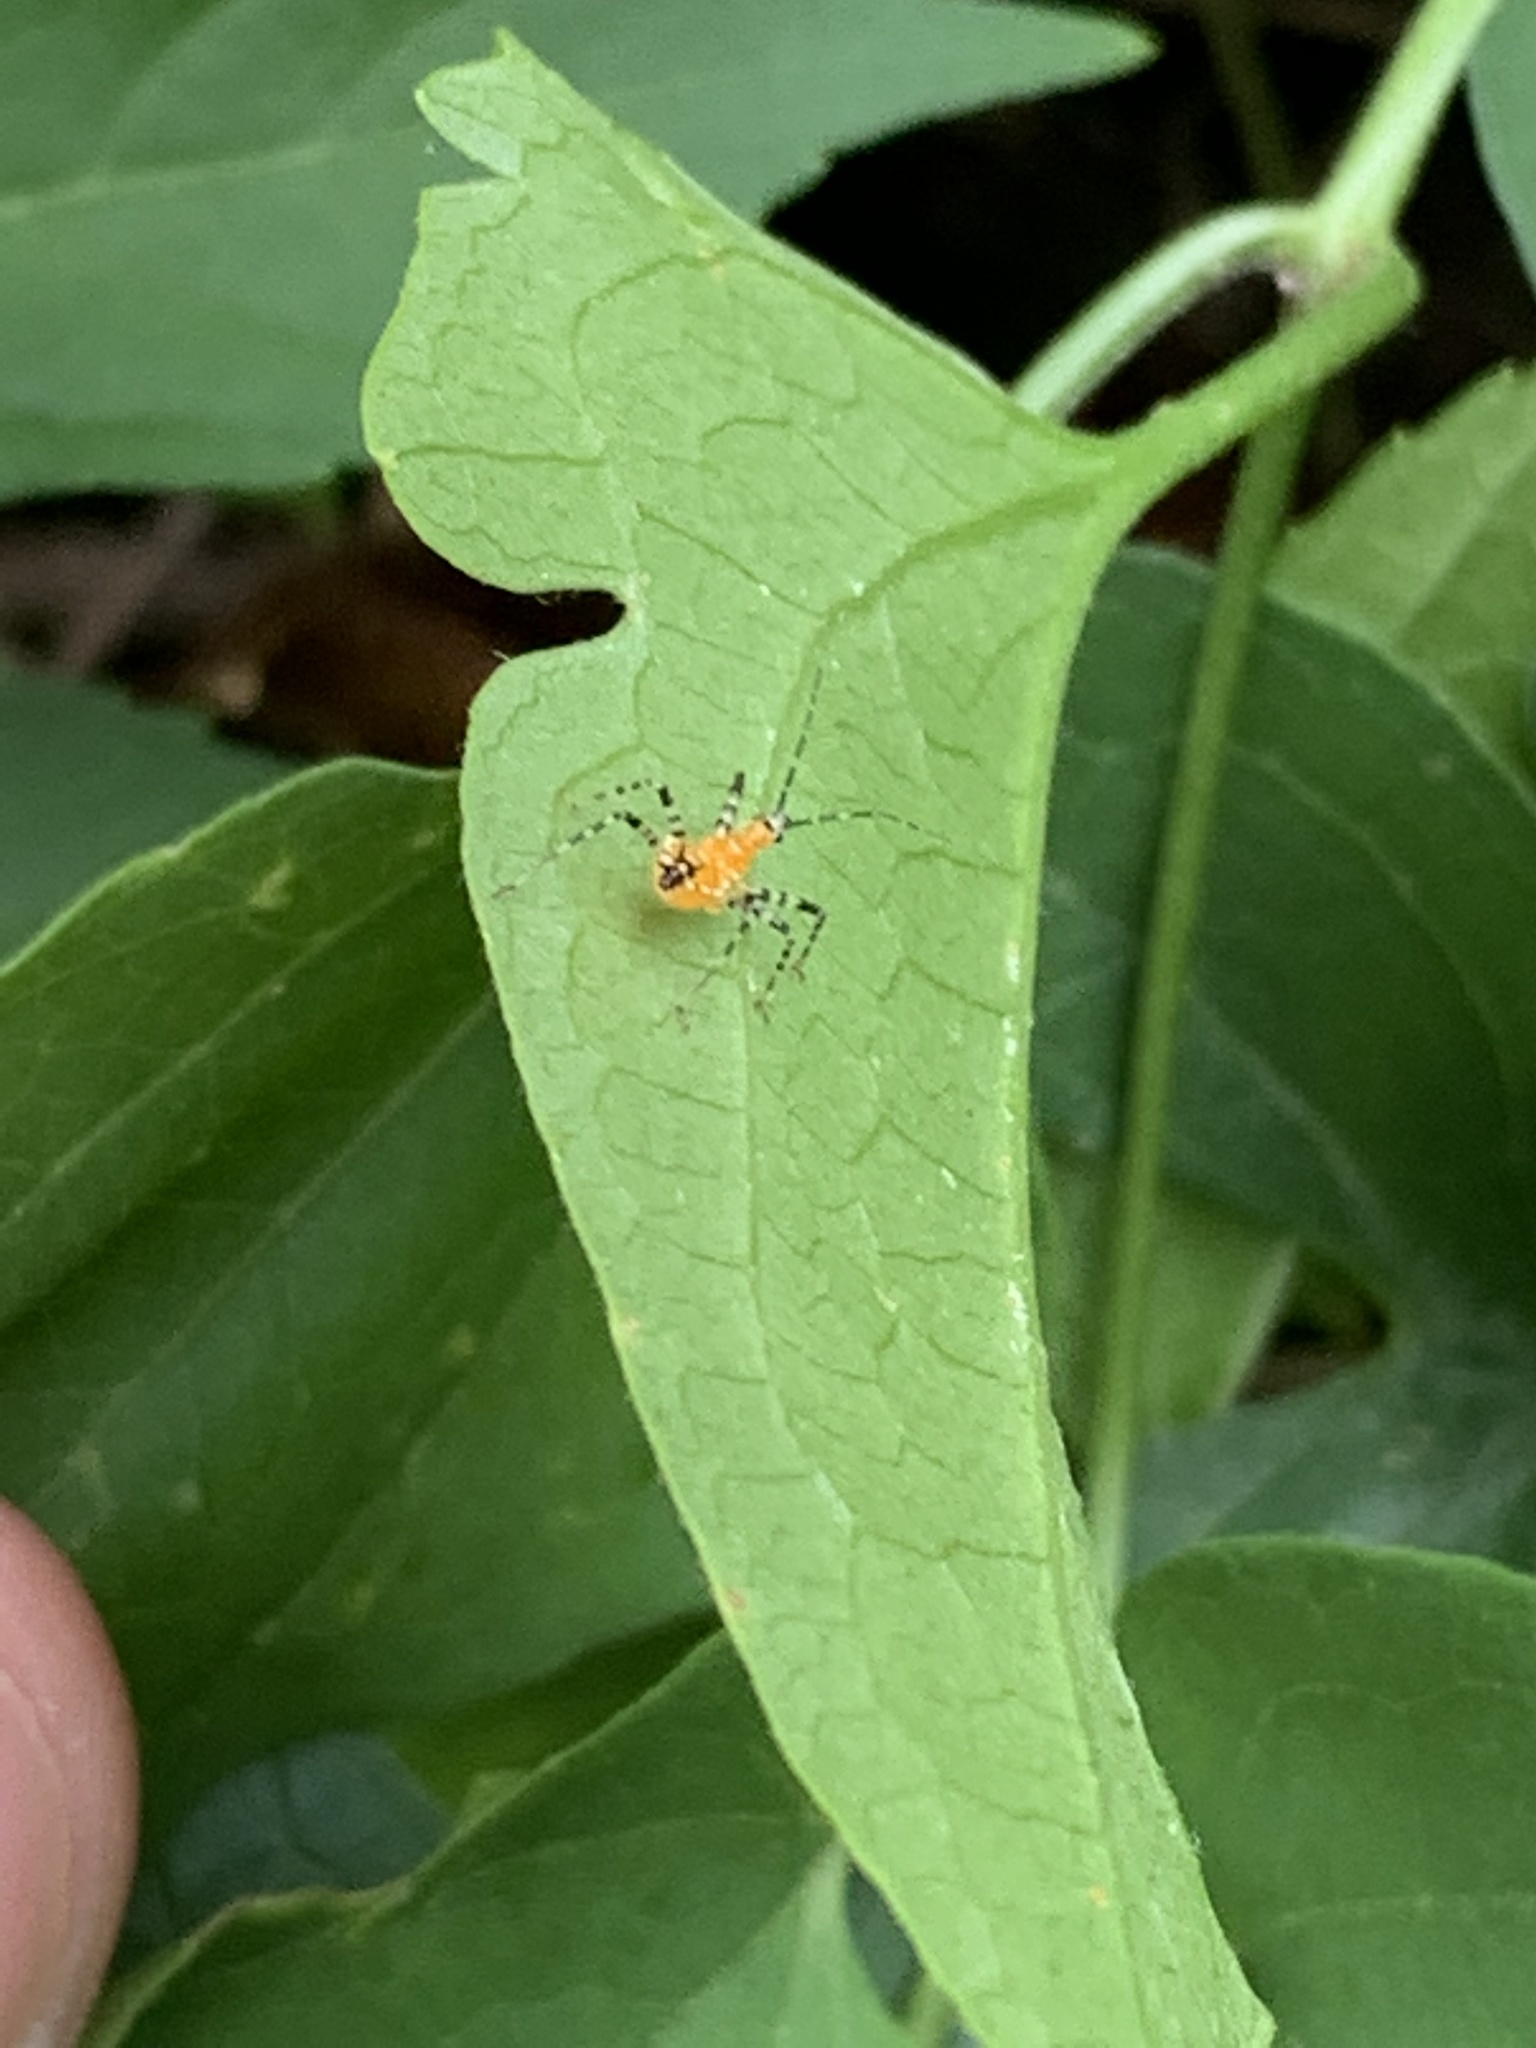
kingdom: Animalia
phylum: Arthropoda
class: Insecta
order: Hemiptera
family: Reduviidae
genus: Pselliopus
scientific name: Pselliopus barberi
